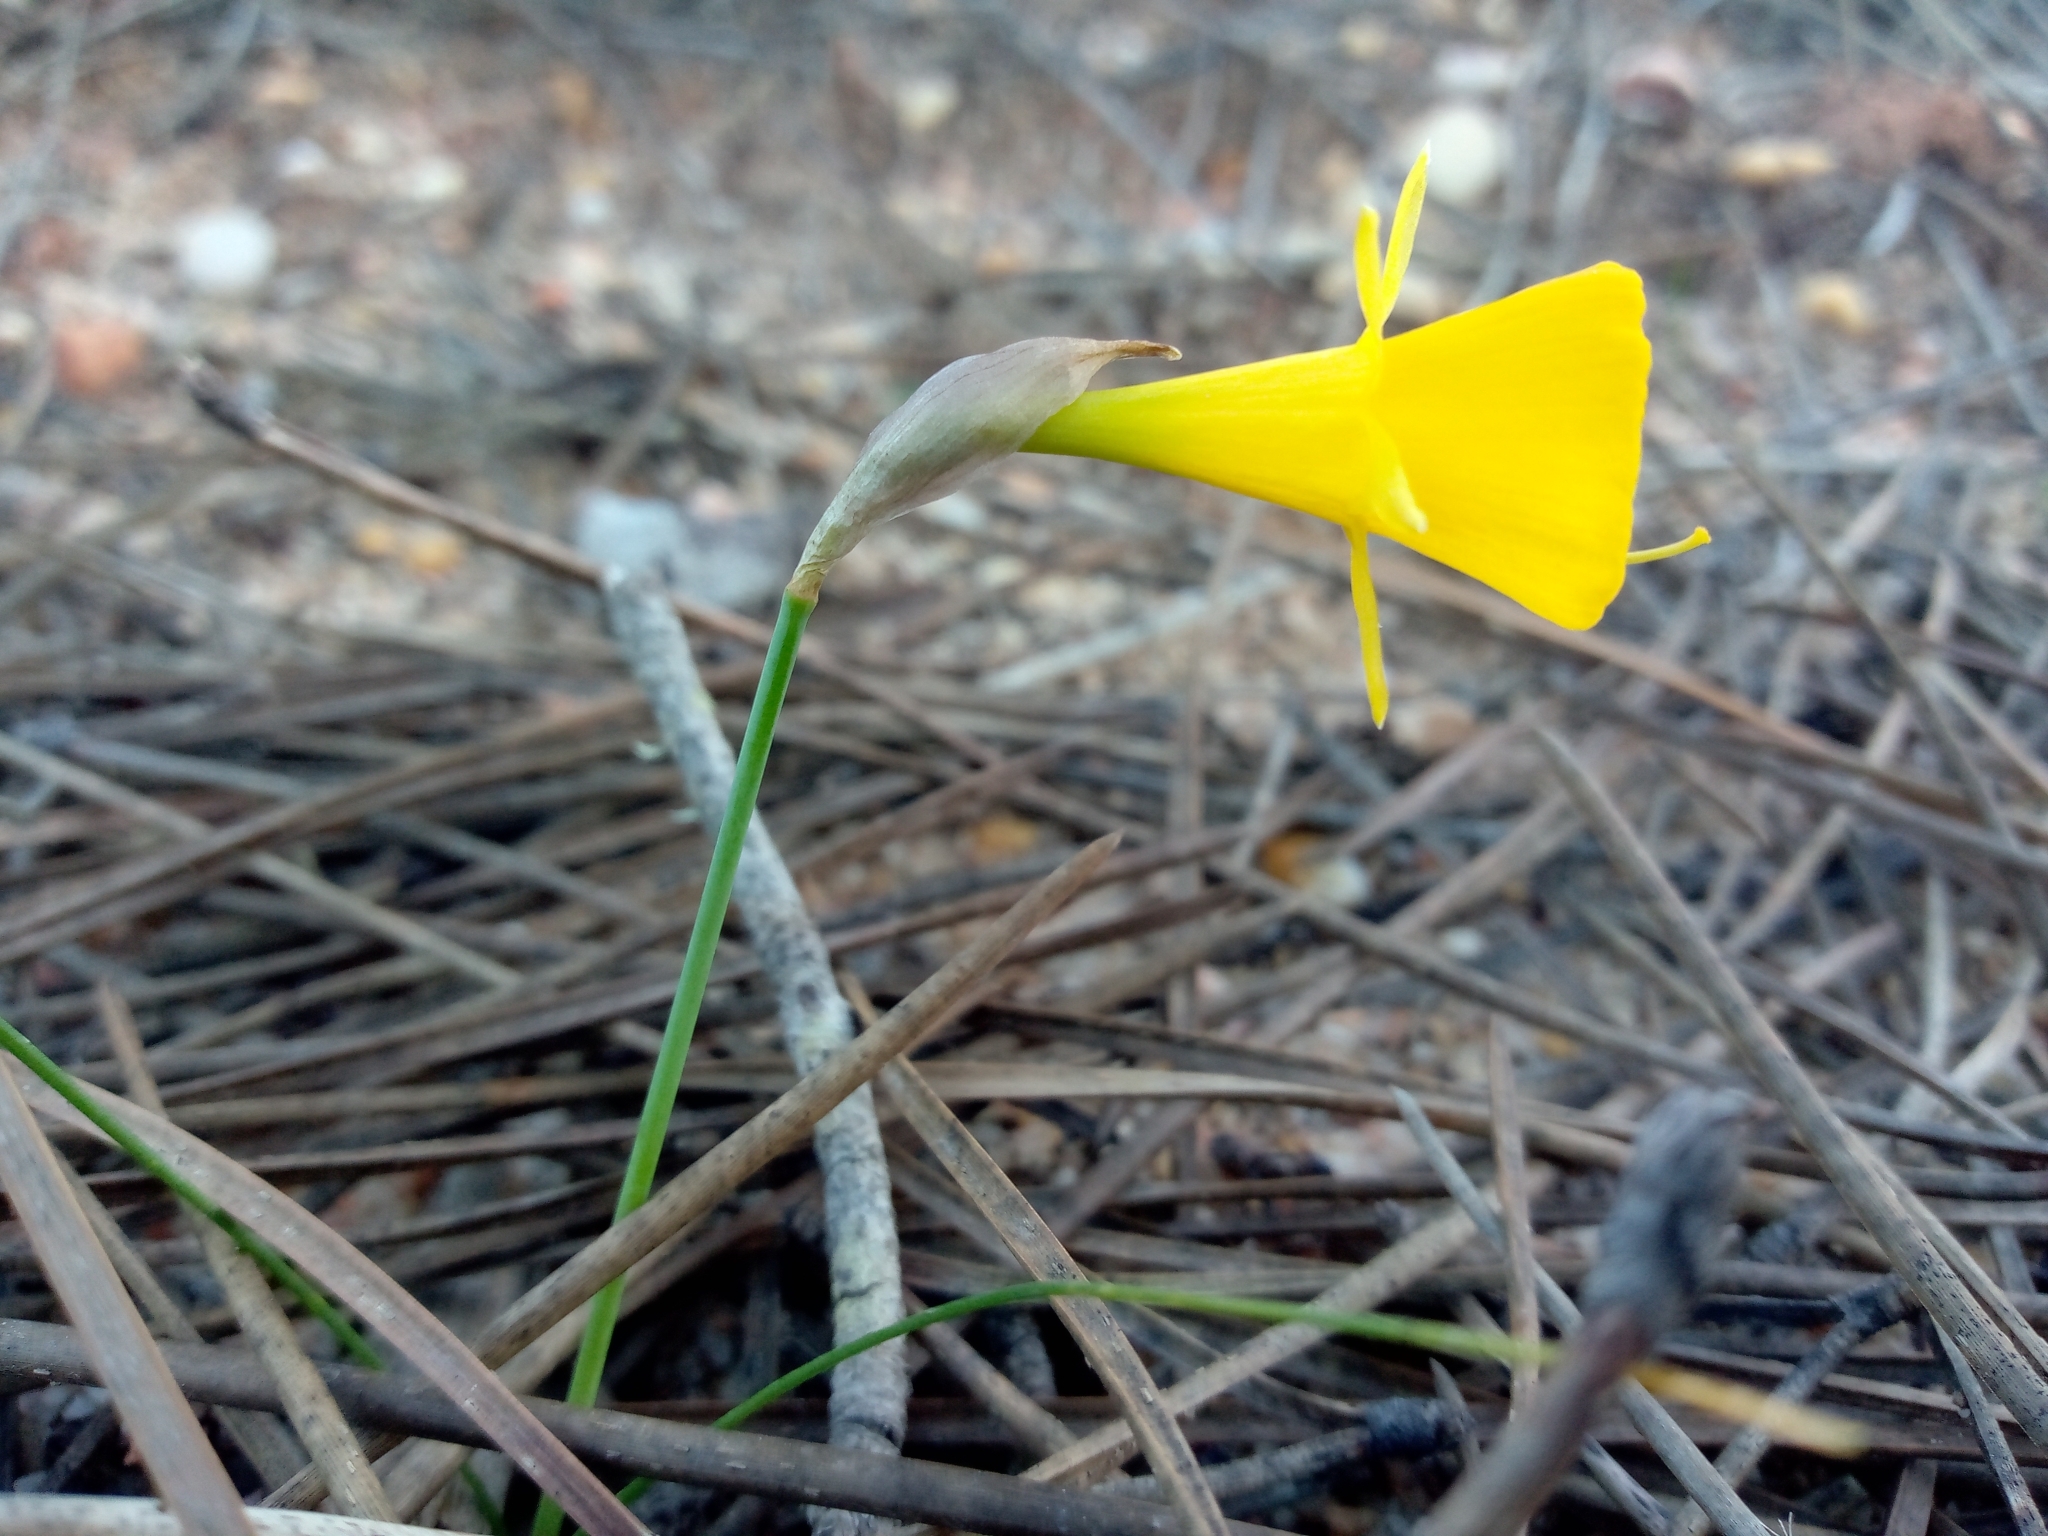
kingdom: Plantae
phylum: Tracheophyta
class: Liliopsida
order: Asparagales
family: Amaryllidaceae
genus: Narcissus
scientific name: Narcissus obesus
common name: Hoop petticoat daffodil
